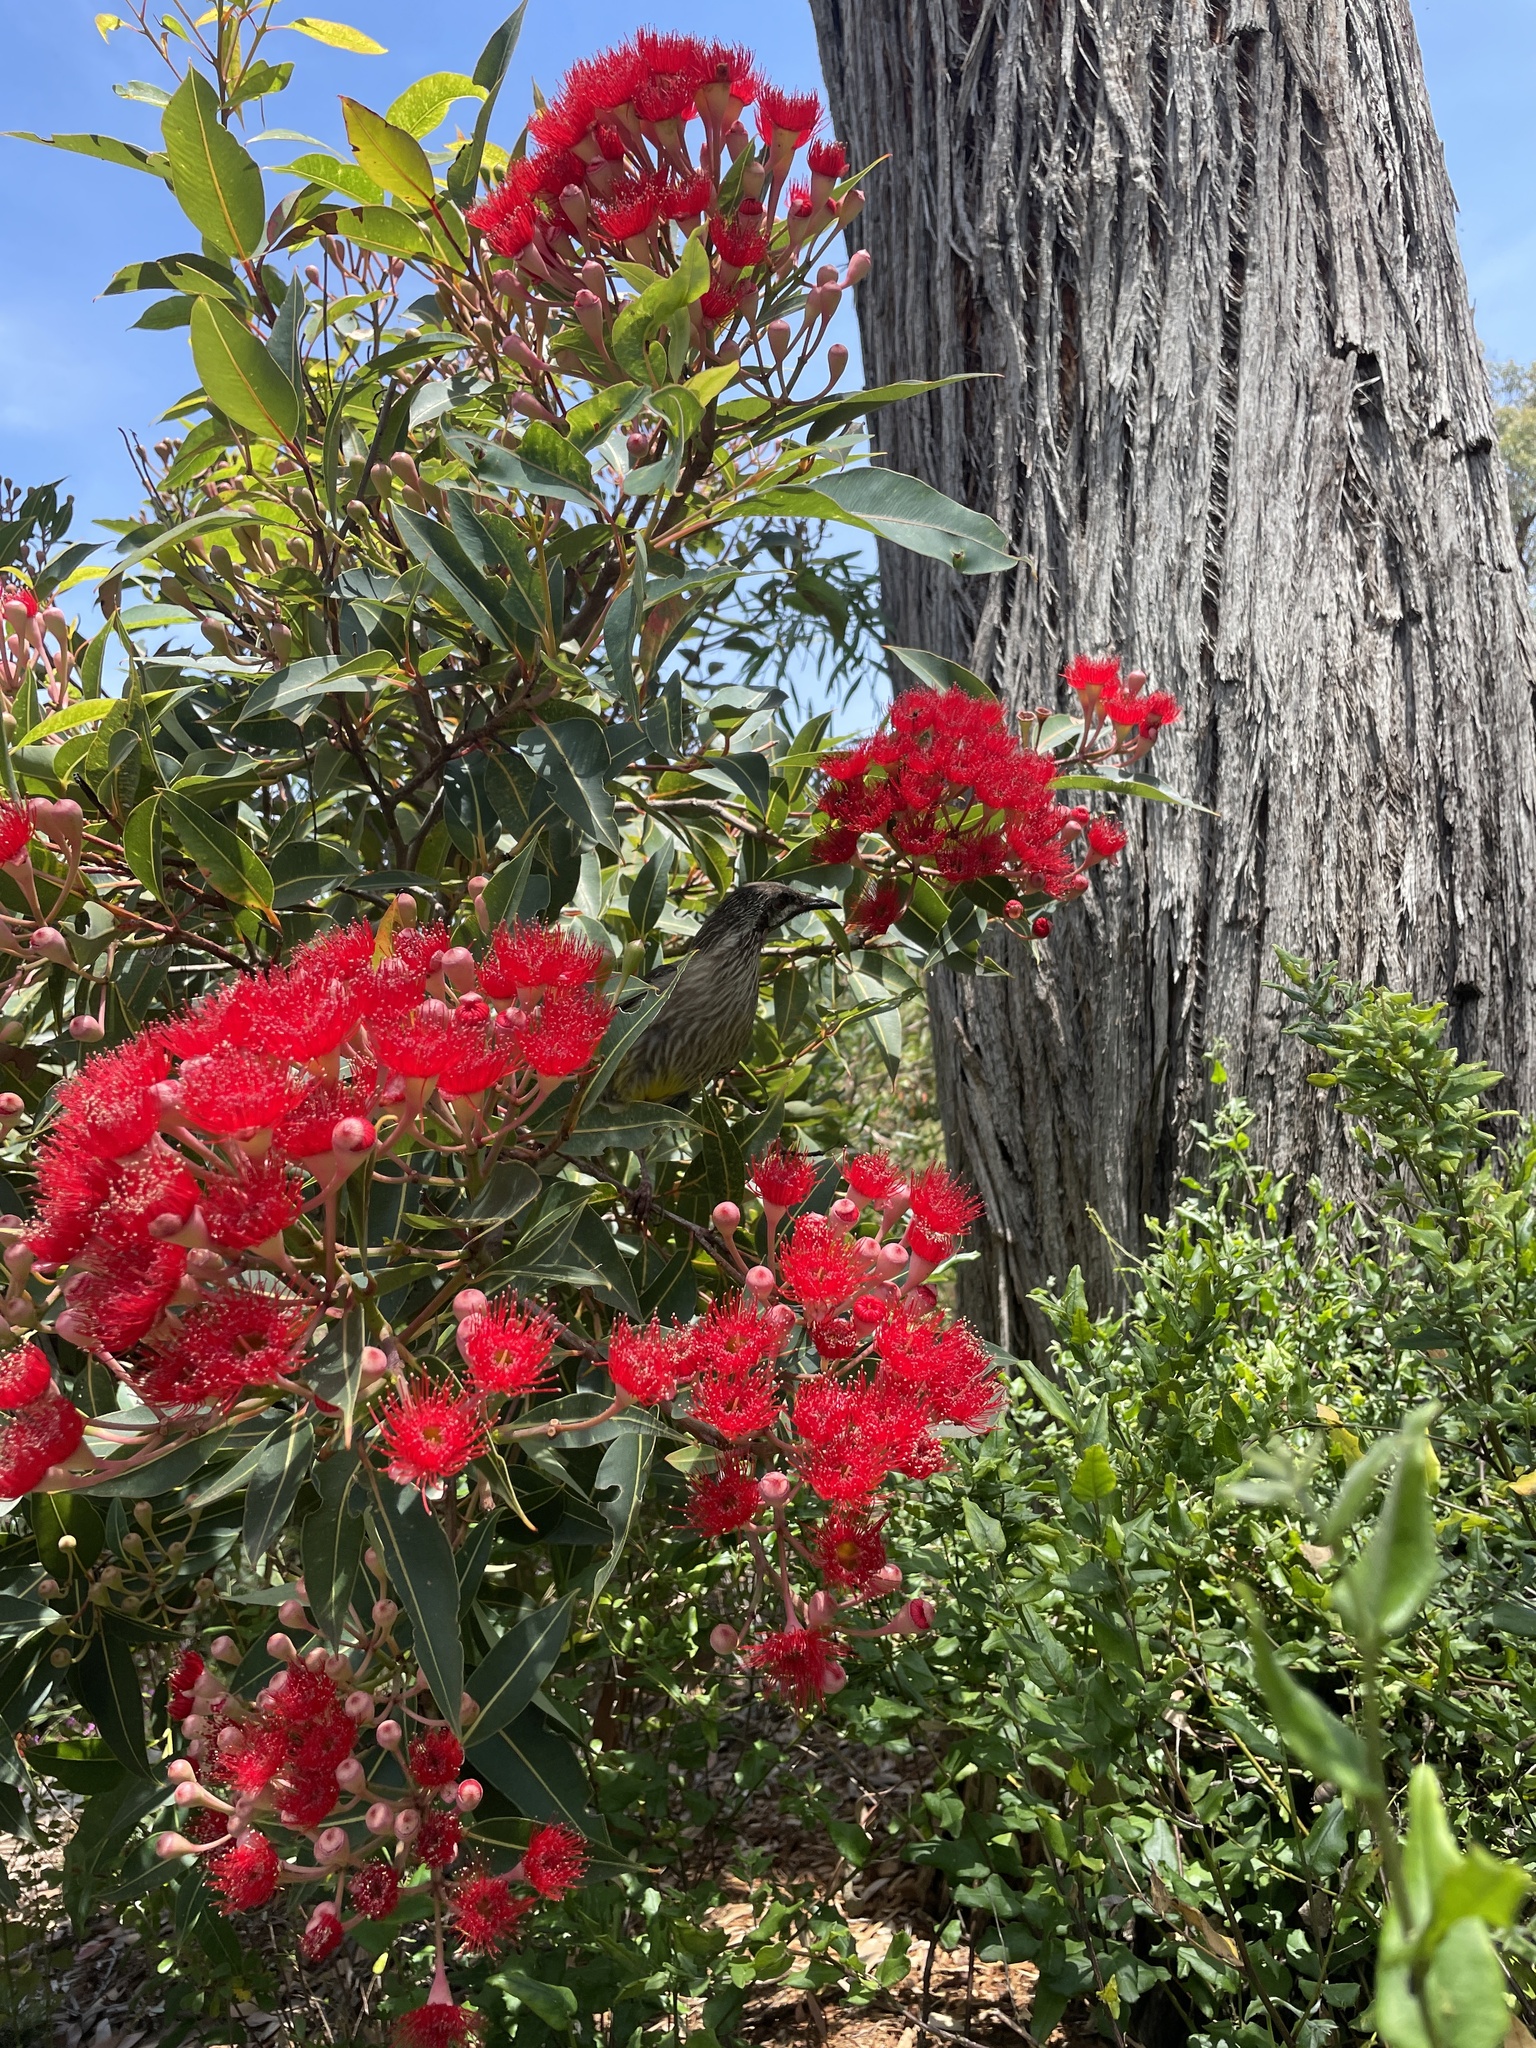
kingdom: Animalia
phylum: Chordata
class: Aves
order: Passeriformes
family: Meliphagidae
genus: Anthochaera
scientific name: Anthochaera carunculata
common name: Red wattlebird
